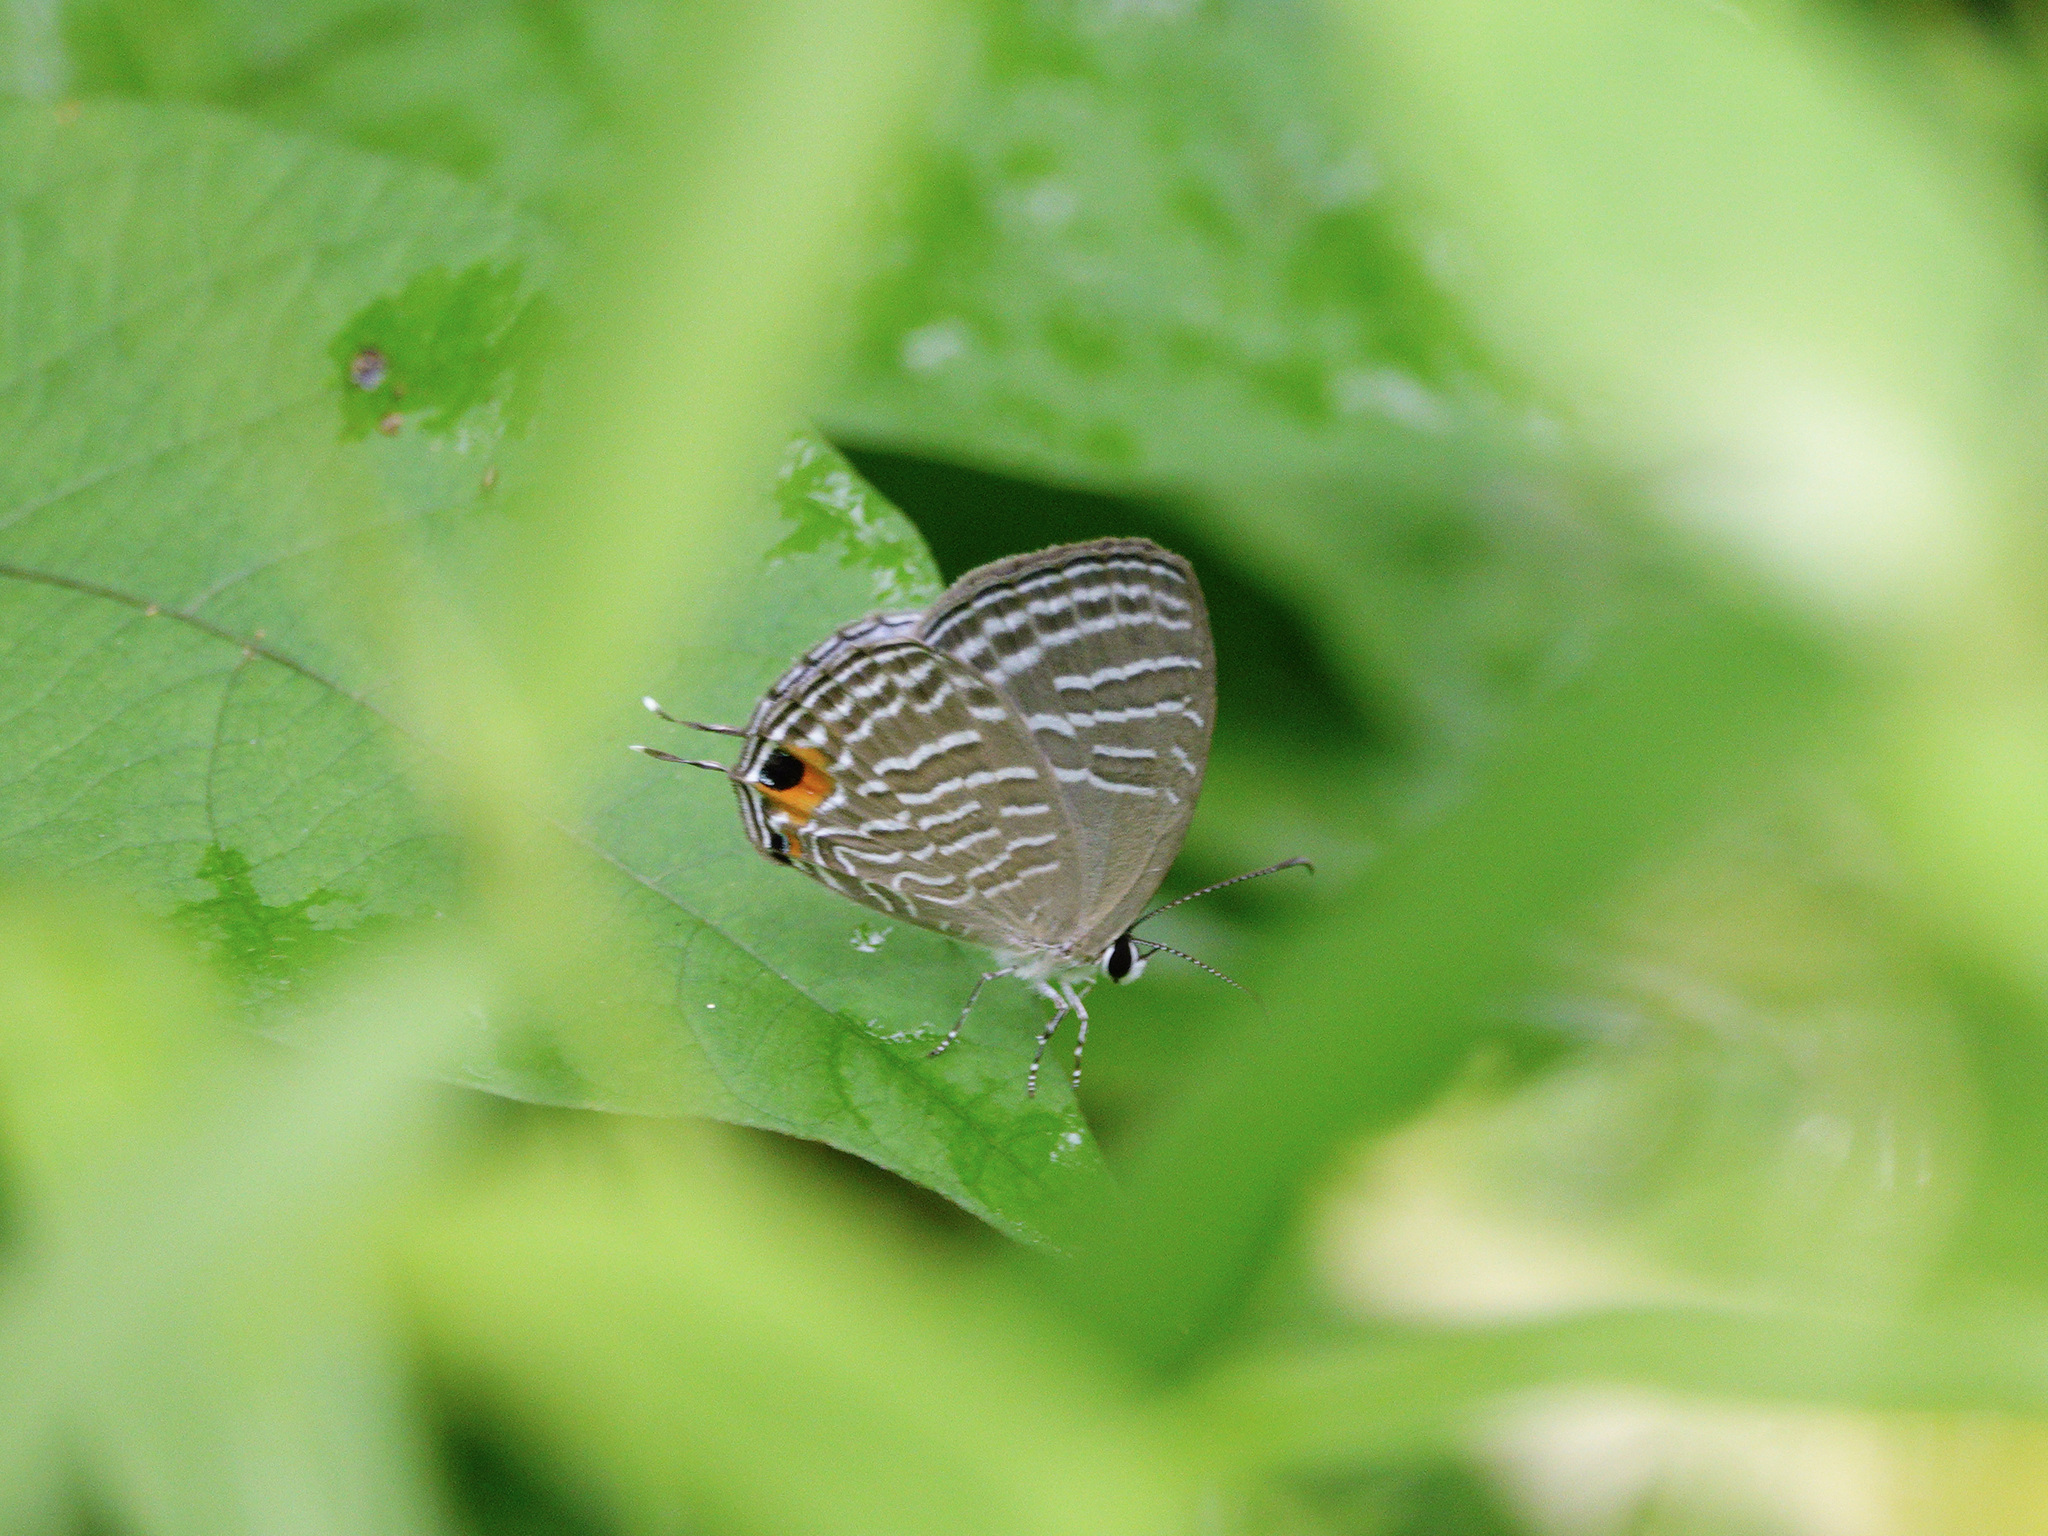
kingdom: Animalia
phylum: Arthropoda
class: Insecta
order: Lepidoptera
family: Lycaenidae
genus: Jamides
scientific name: Jamides celeno
